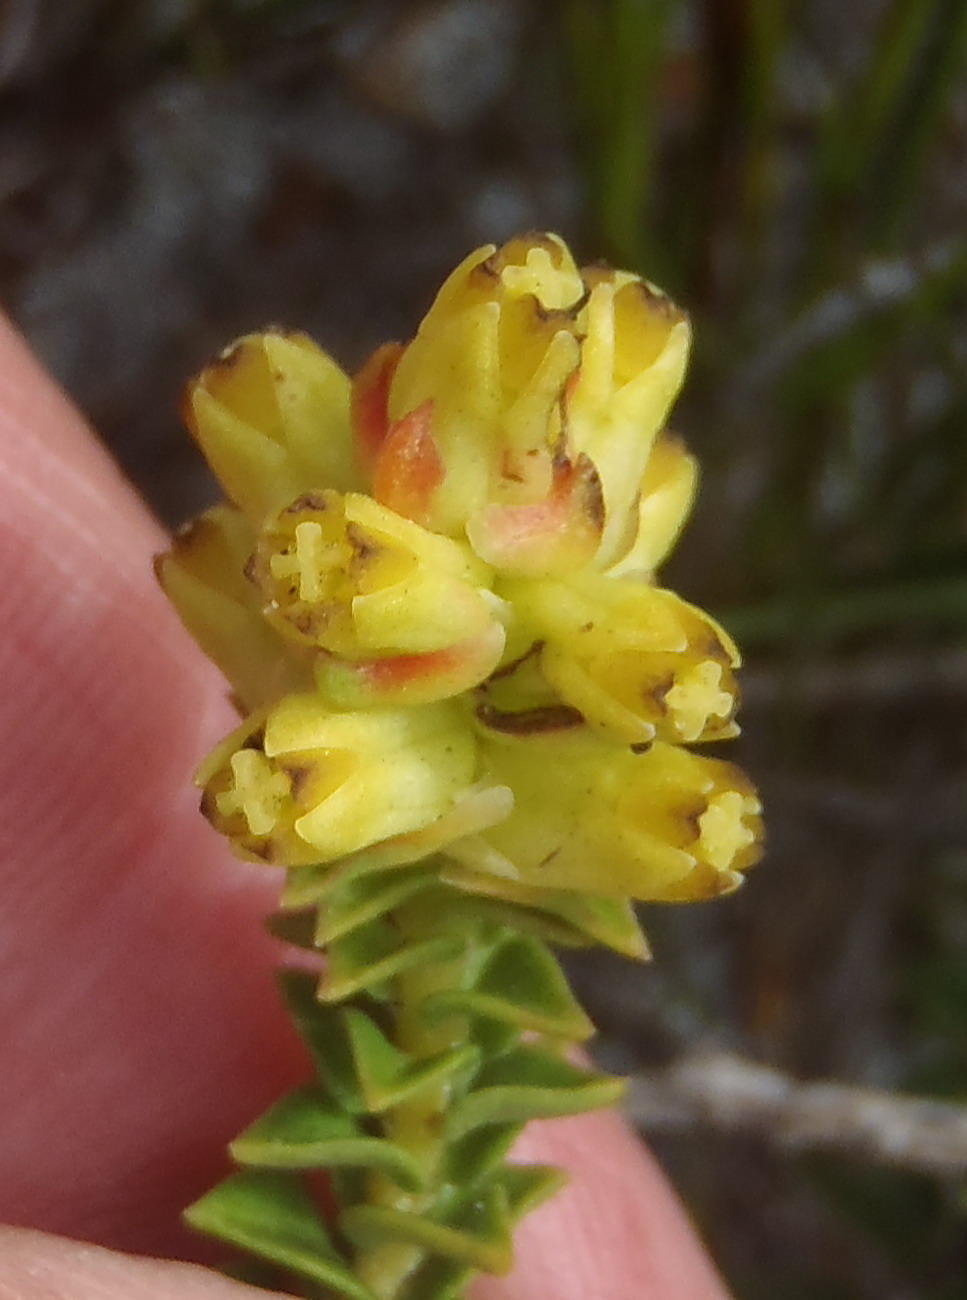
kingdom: Plantae
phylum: Tracheophyta
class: Magnoliopsida
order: Myrtales
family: Penaeaceae
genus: Penaea
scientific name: Penaea mucronata
